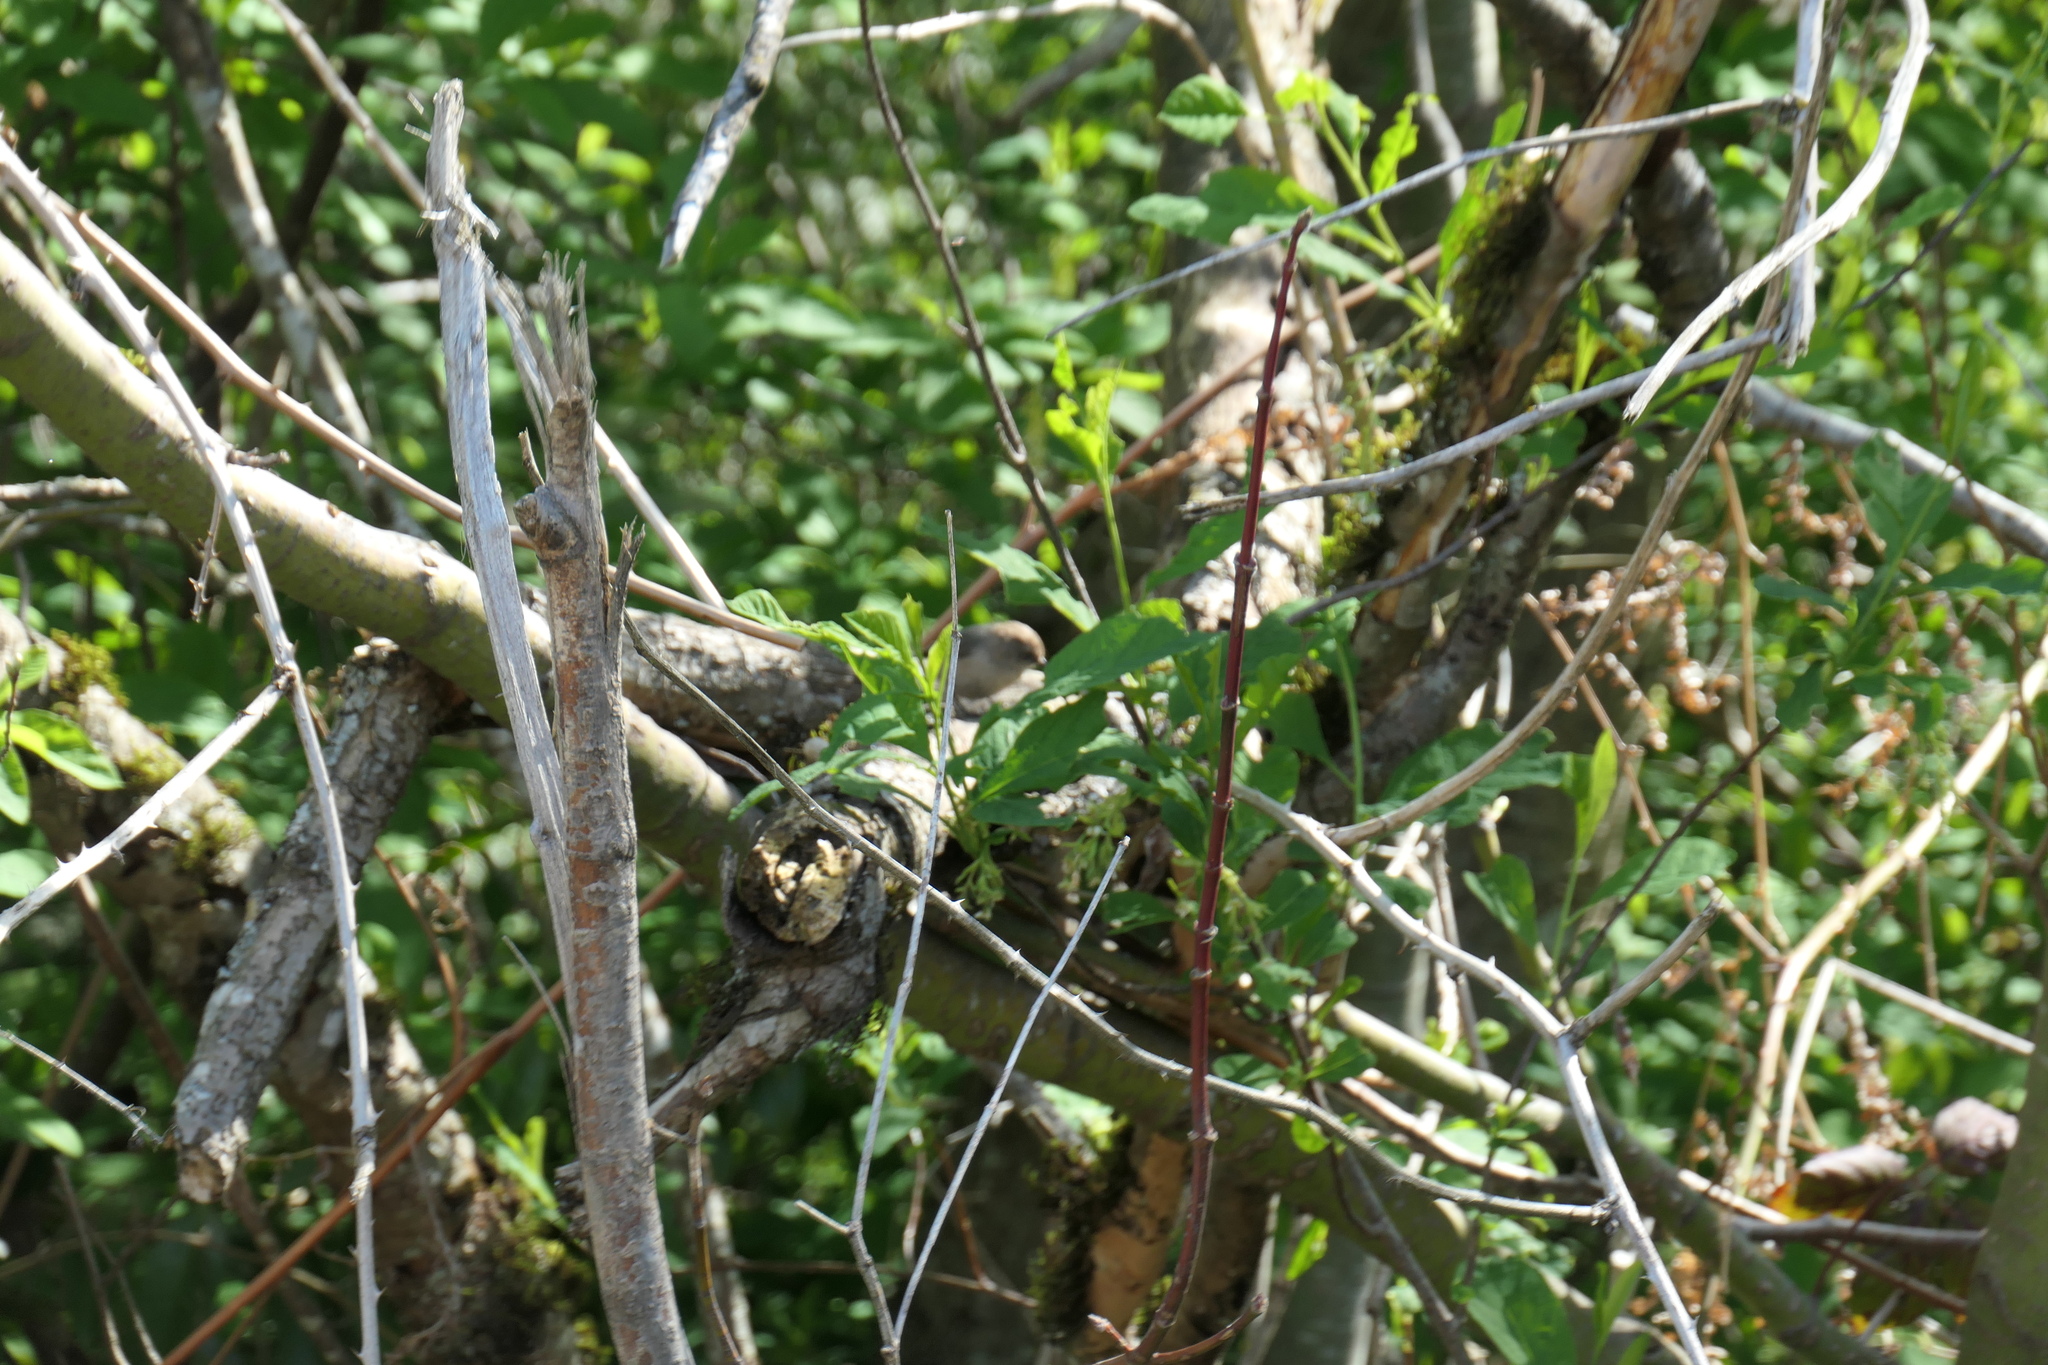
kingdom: Animalia
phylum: Chordata
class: Aves
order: Passeriformes
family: Aegithalidae
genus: Psaltriparus
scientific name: Psaltriparus minimus
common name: American bushtit
